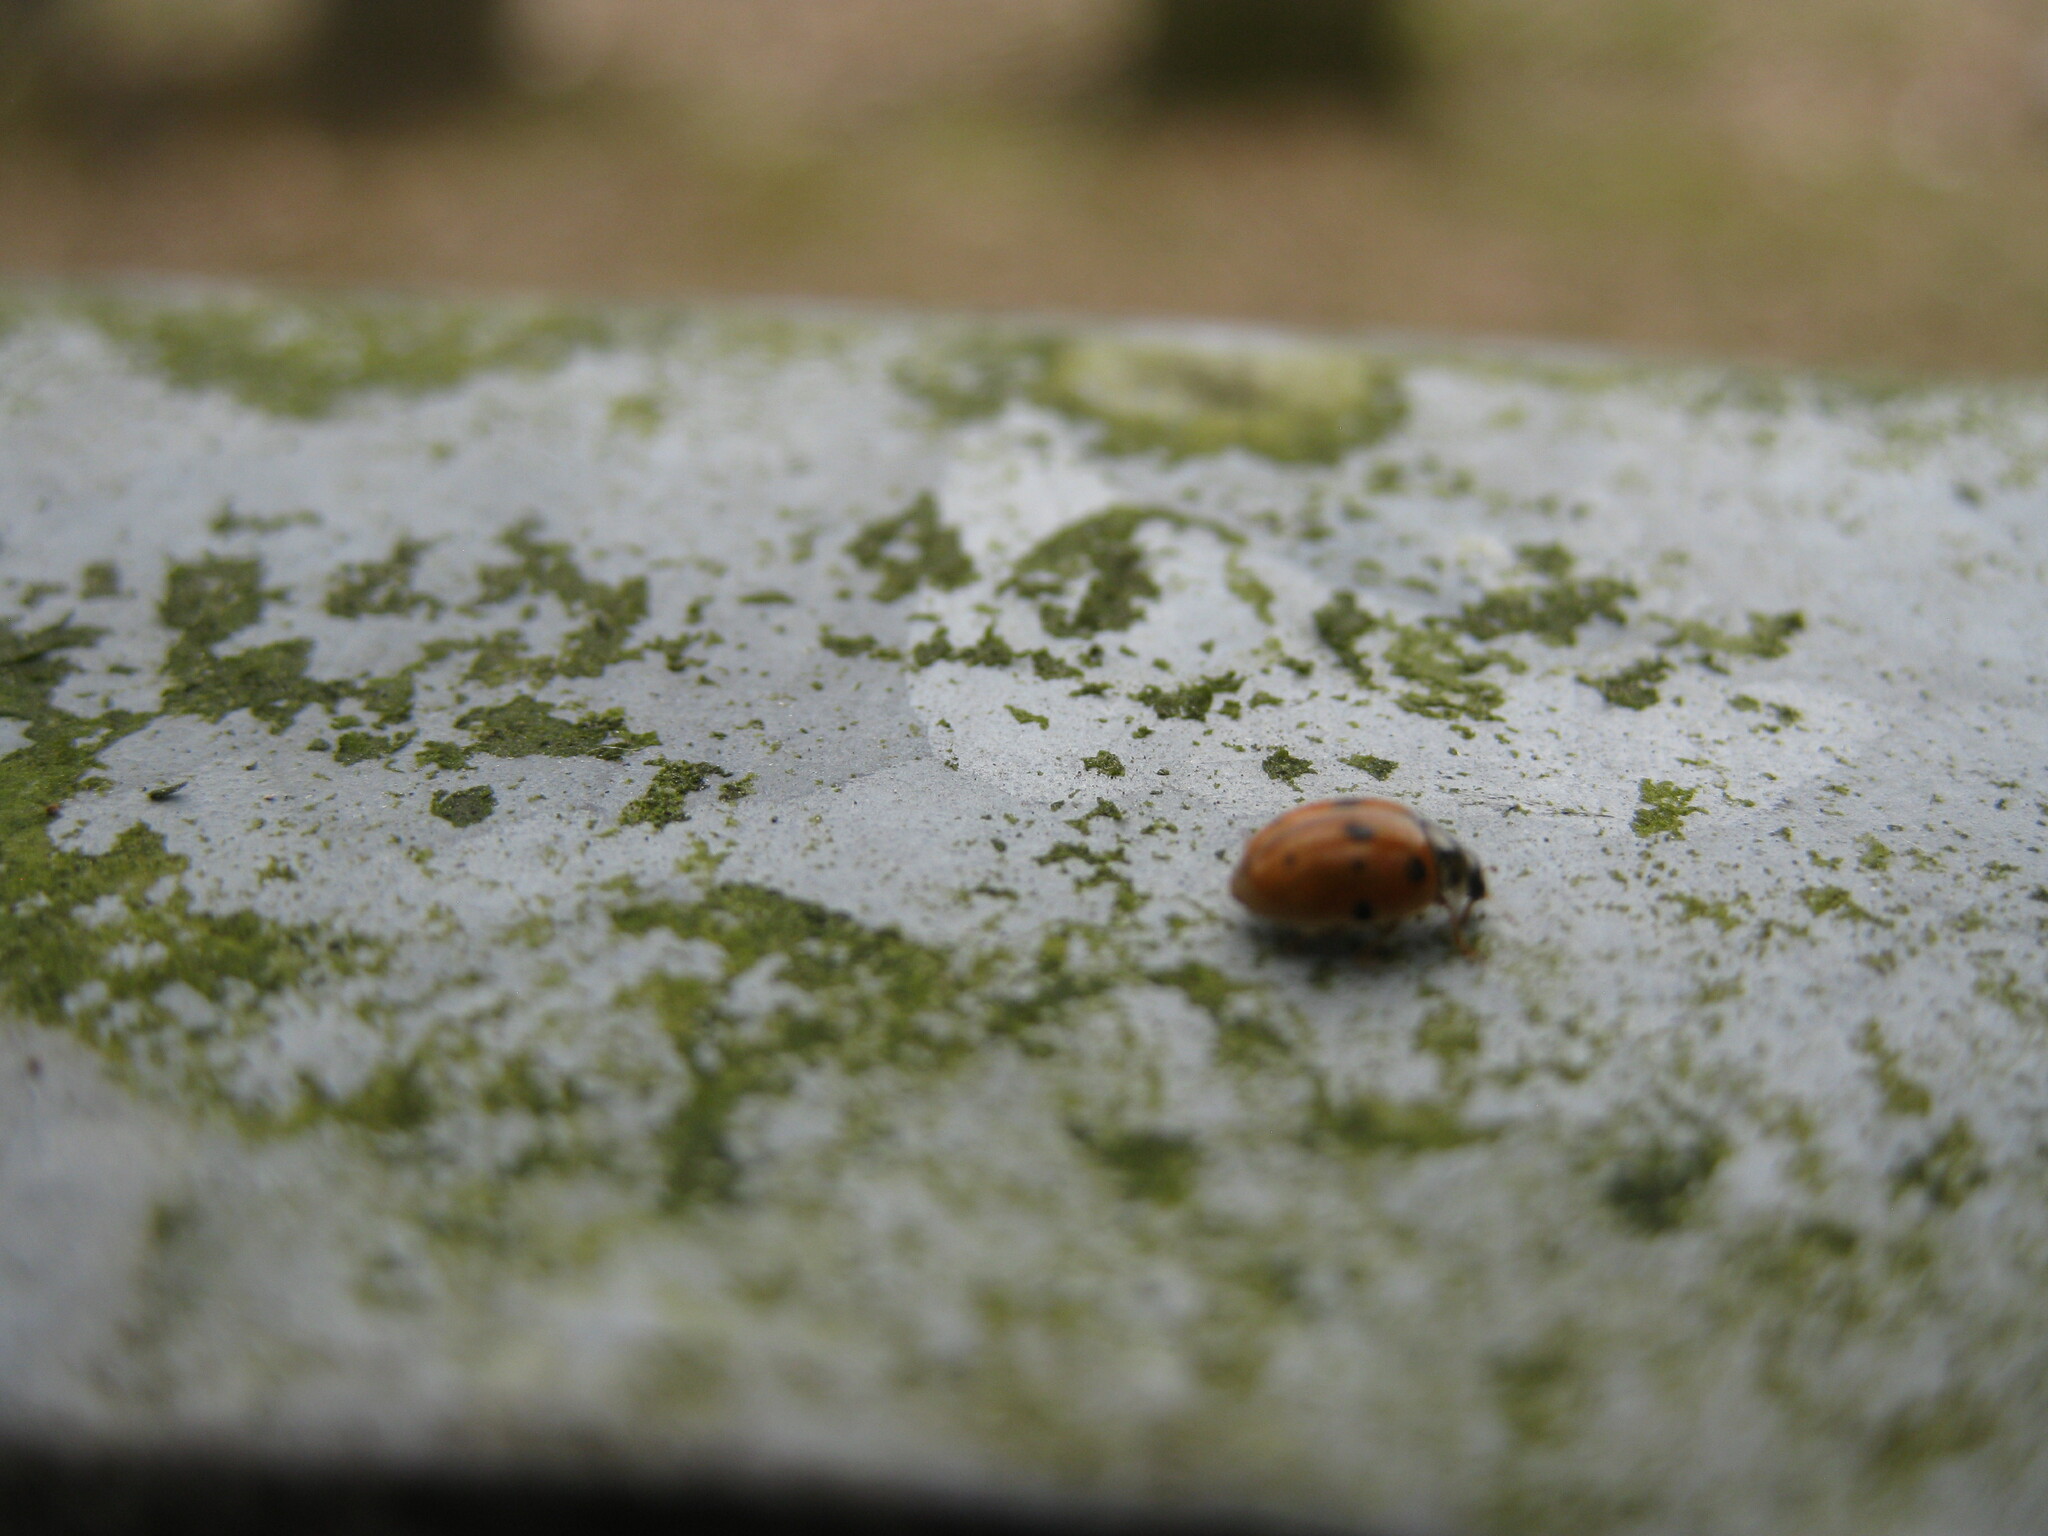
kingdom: Animalia
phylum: Arthropoda
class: Insecta
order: Coleoptera
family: Coccinellidae
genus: Adalia
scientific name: Adalia decempunctata
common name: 10-spot ladybird
